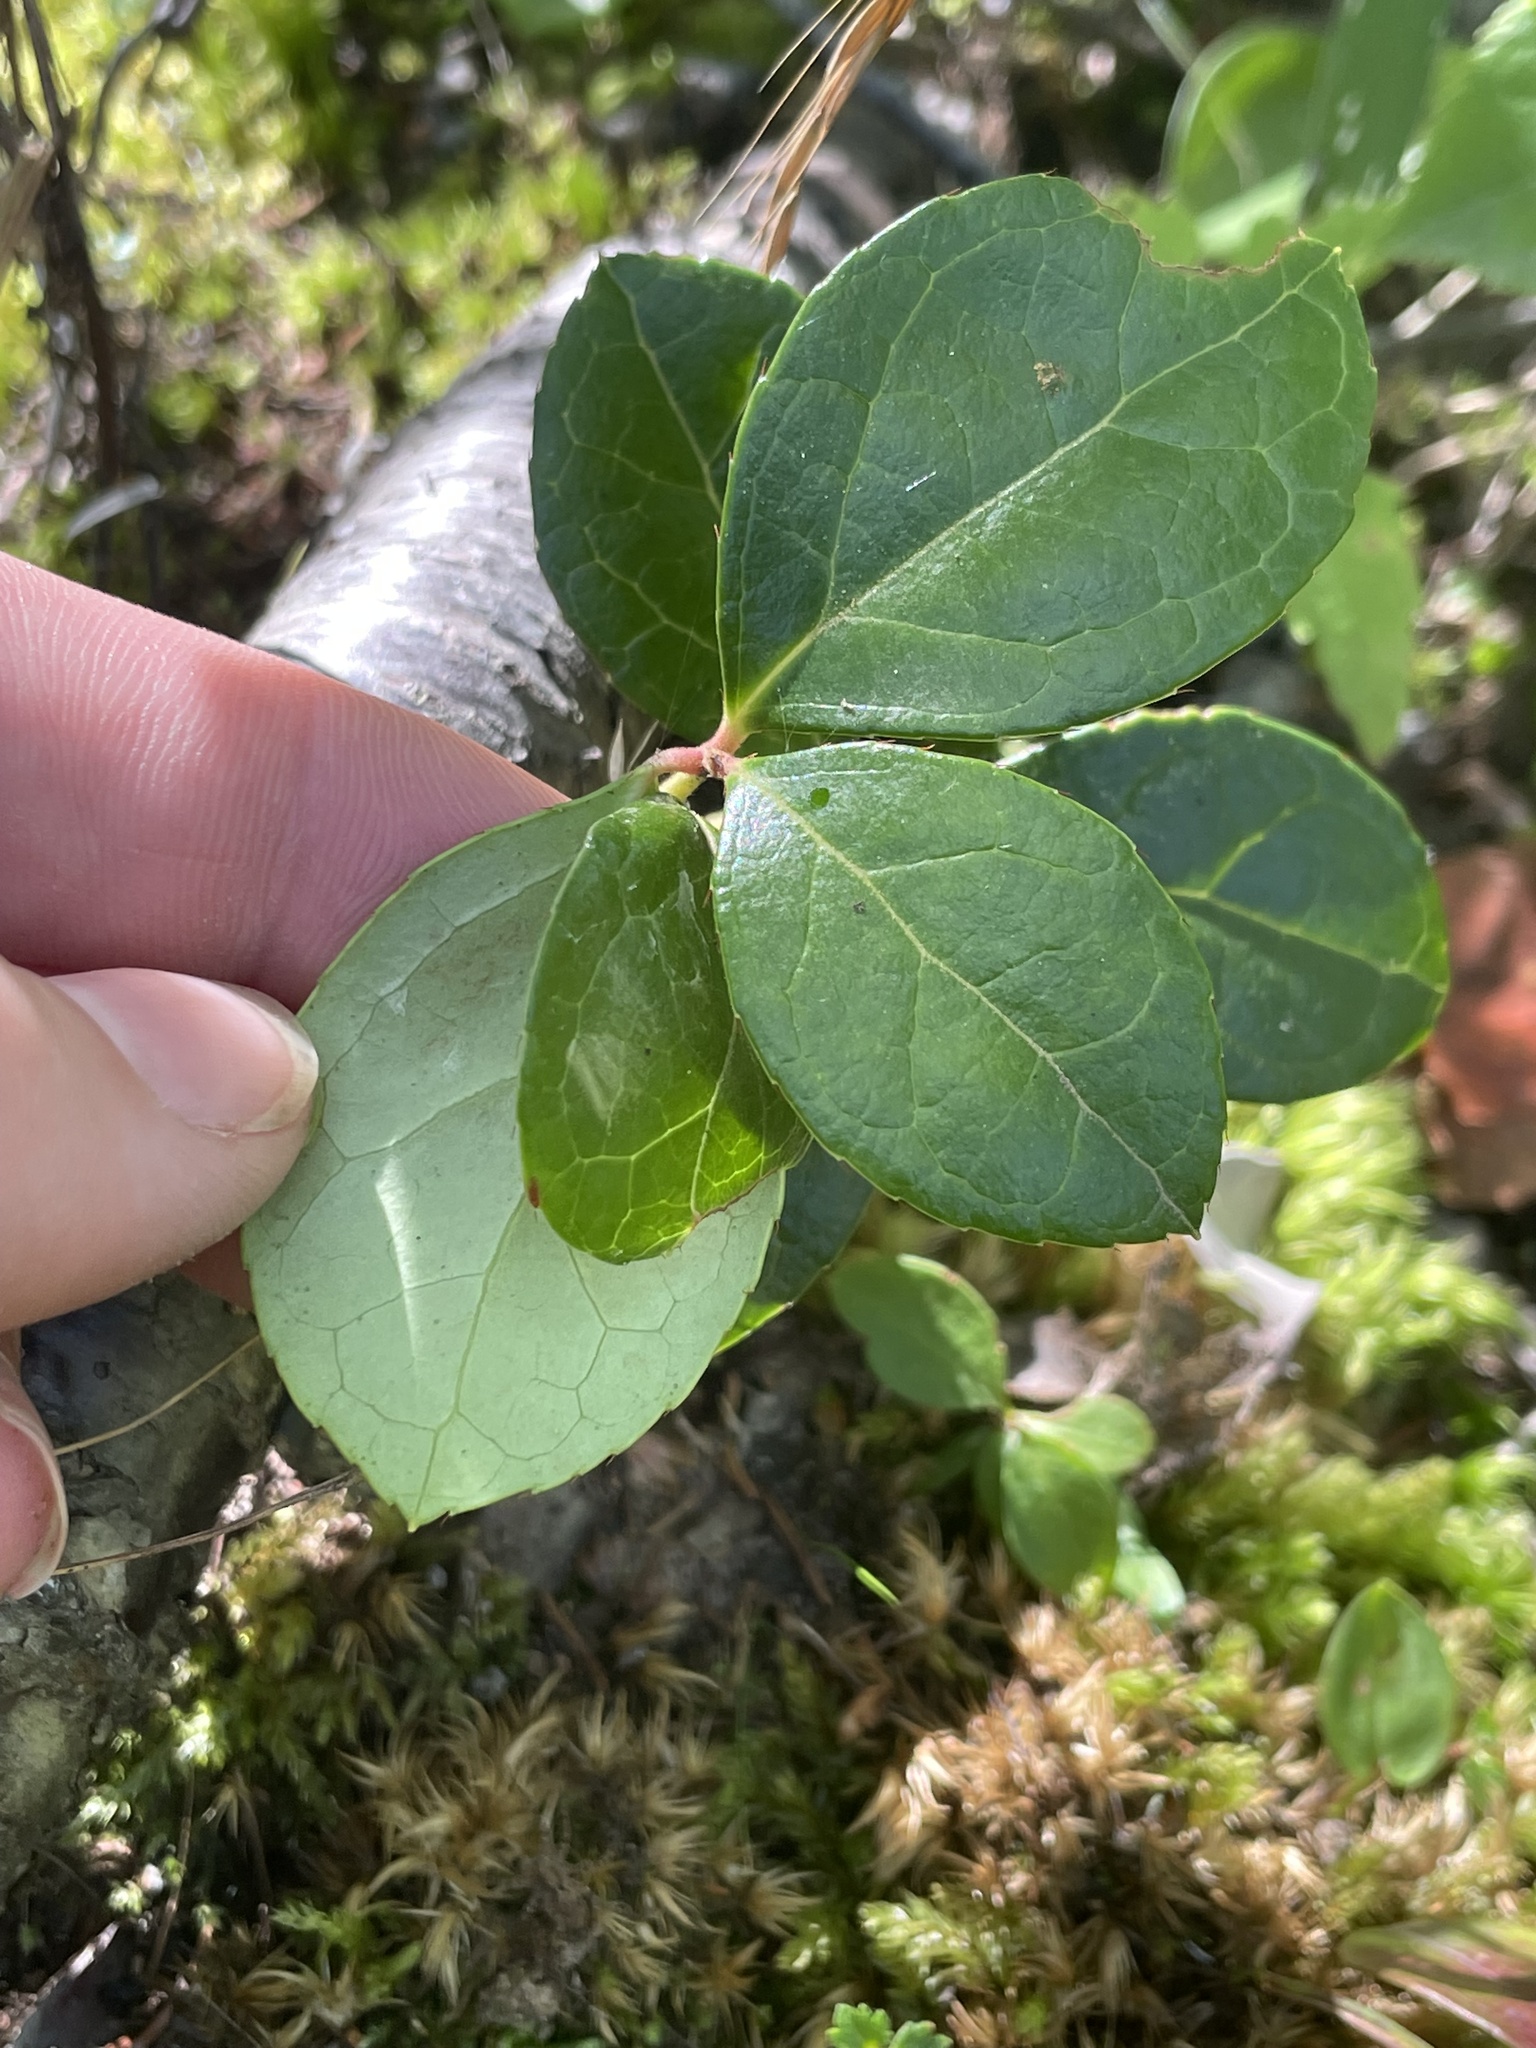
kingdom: Plantae
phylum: Tracheophyta
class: Magnoliopsida
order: Ericales
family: Ericaceae
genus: Gaultheria
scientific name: Gaultheria procumbens
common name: Checkerberry
